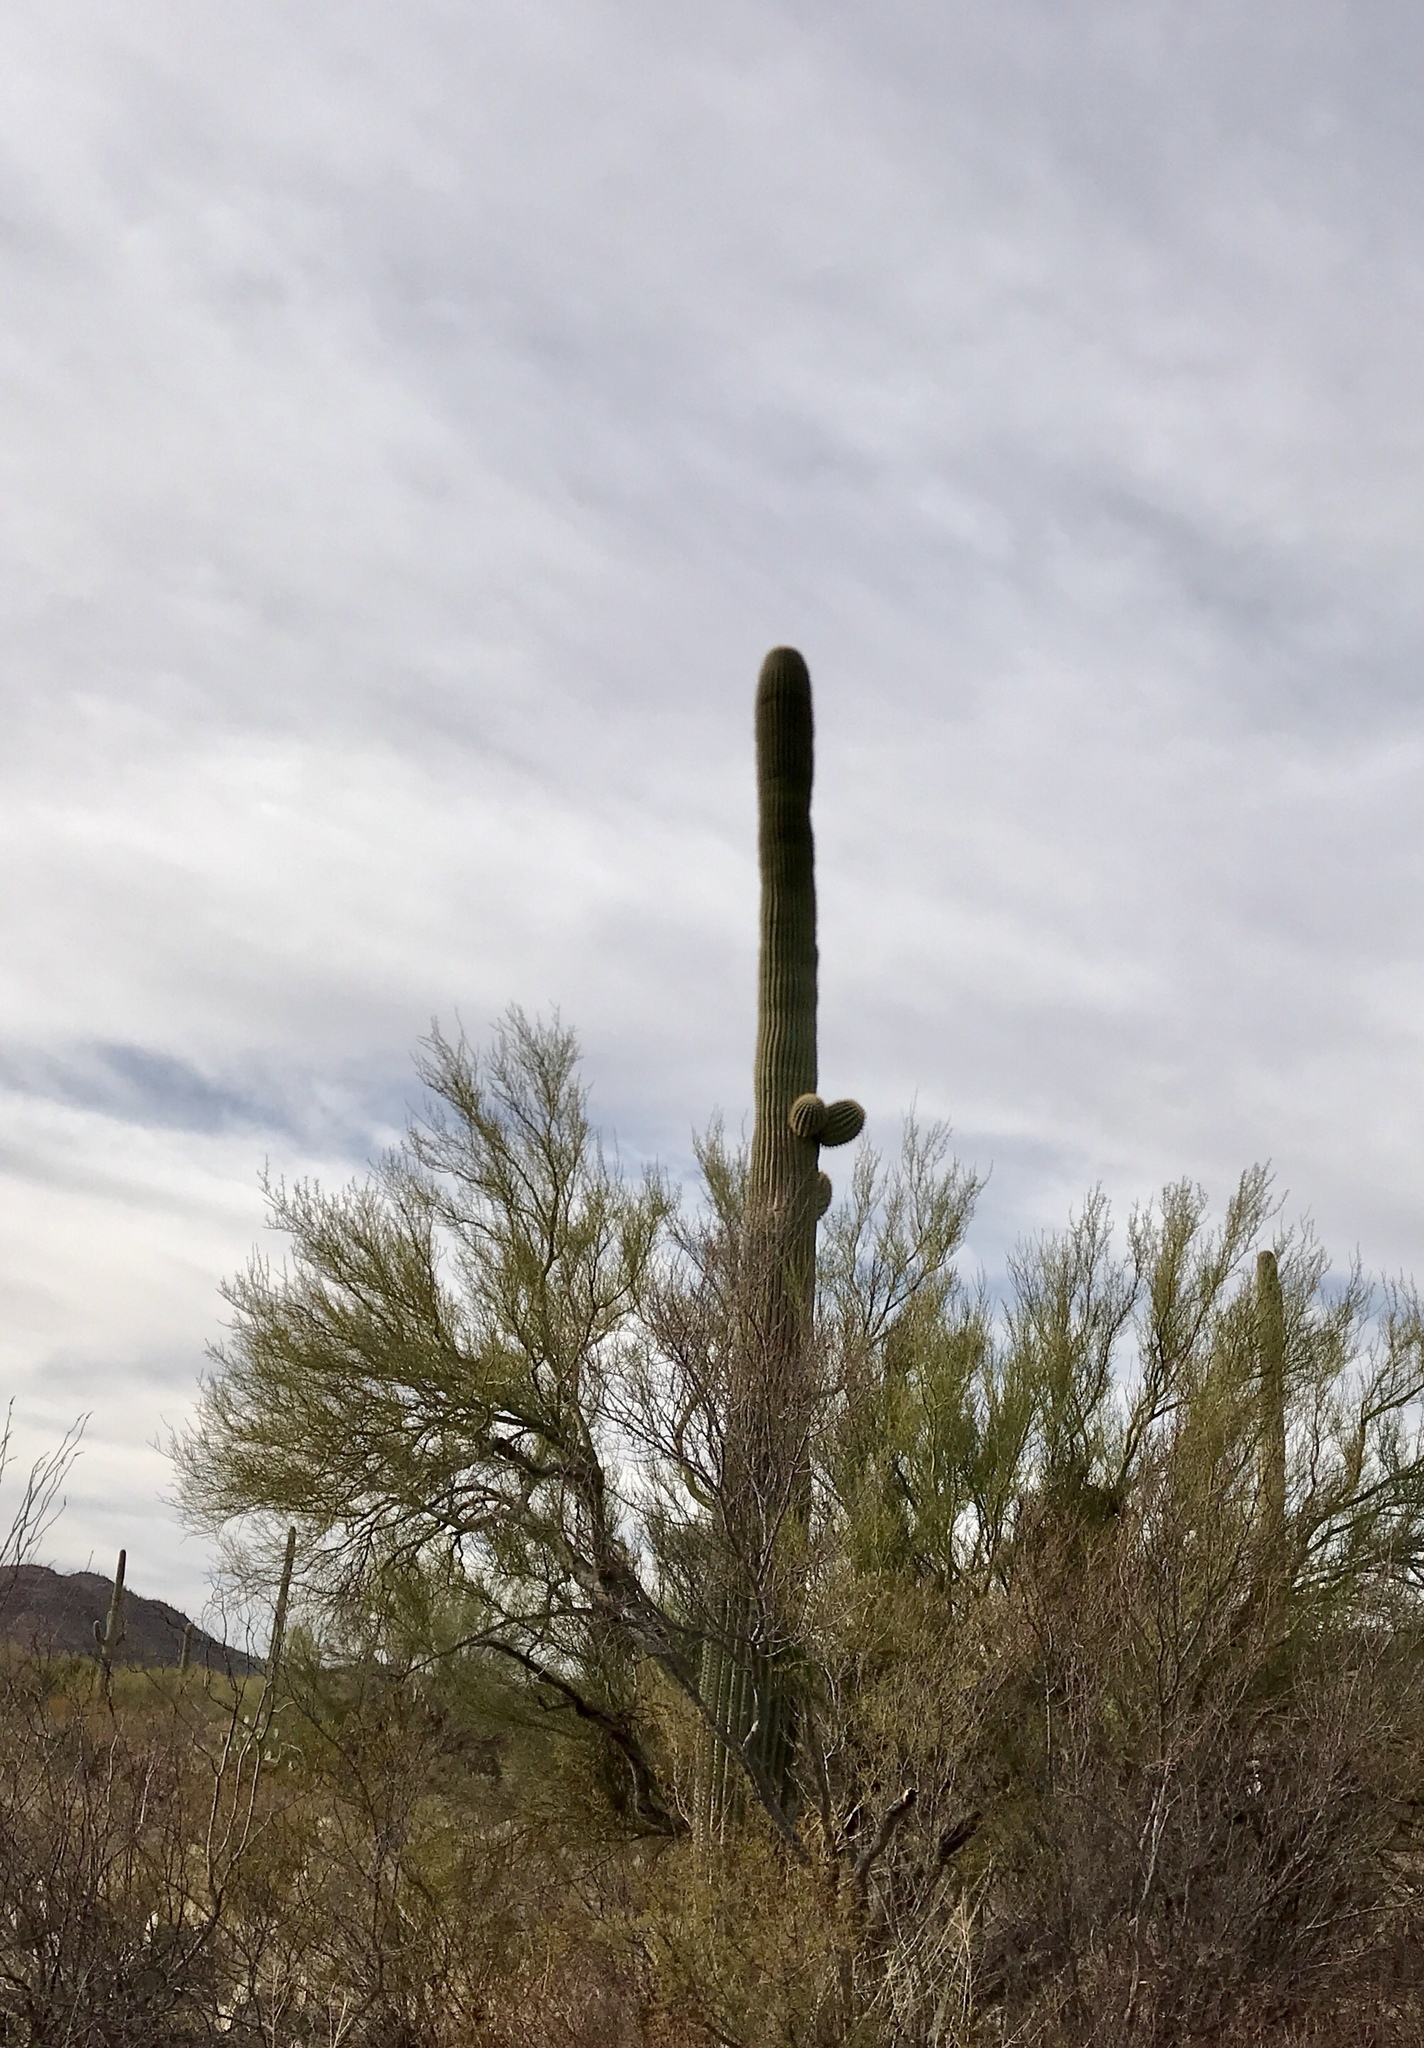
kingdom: Plantae
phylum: Tracheophyta
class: Magnoliopsida
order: Caryophyllales
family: Cactaceae
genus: Carnegiea
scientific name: Carnegiea gigantea
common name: Saguaro
